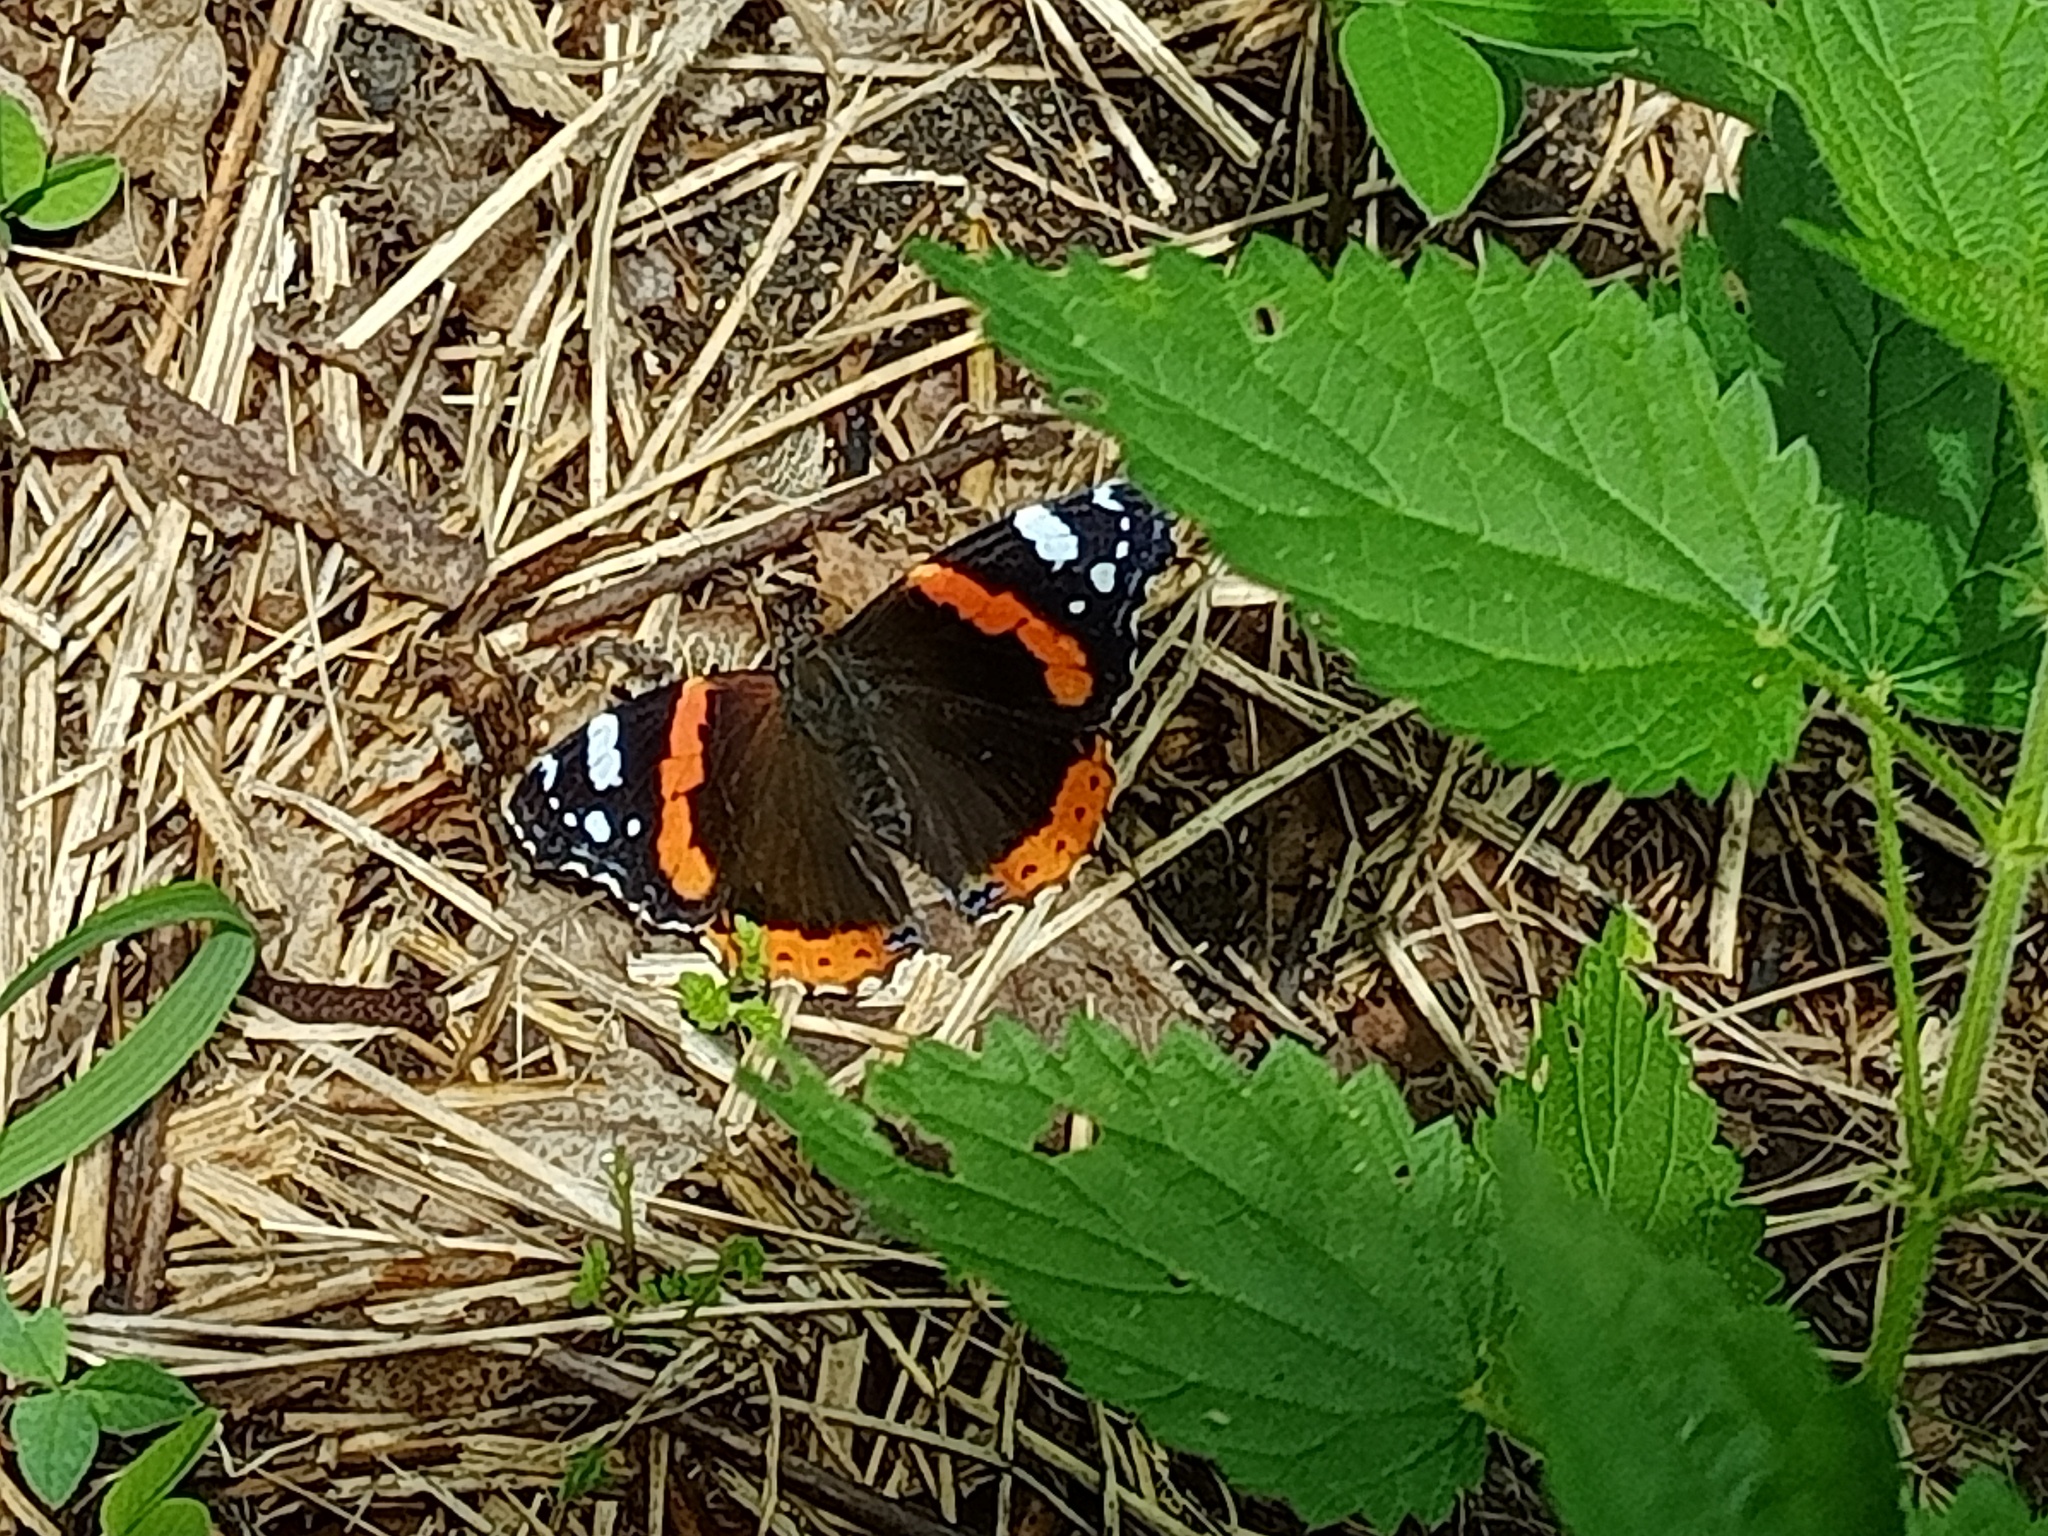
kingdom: Animalia
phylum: Arthropoda
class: Insecta
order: Lepidoptera
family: Nymphalidae
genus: Vanessa
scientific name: Vanessa atalanta
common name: Red admiral
